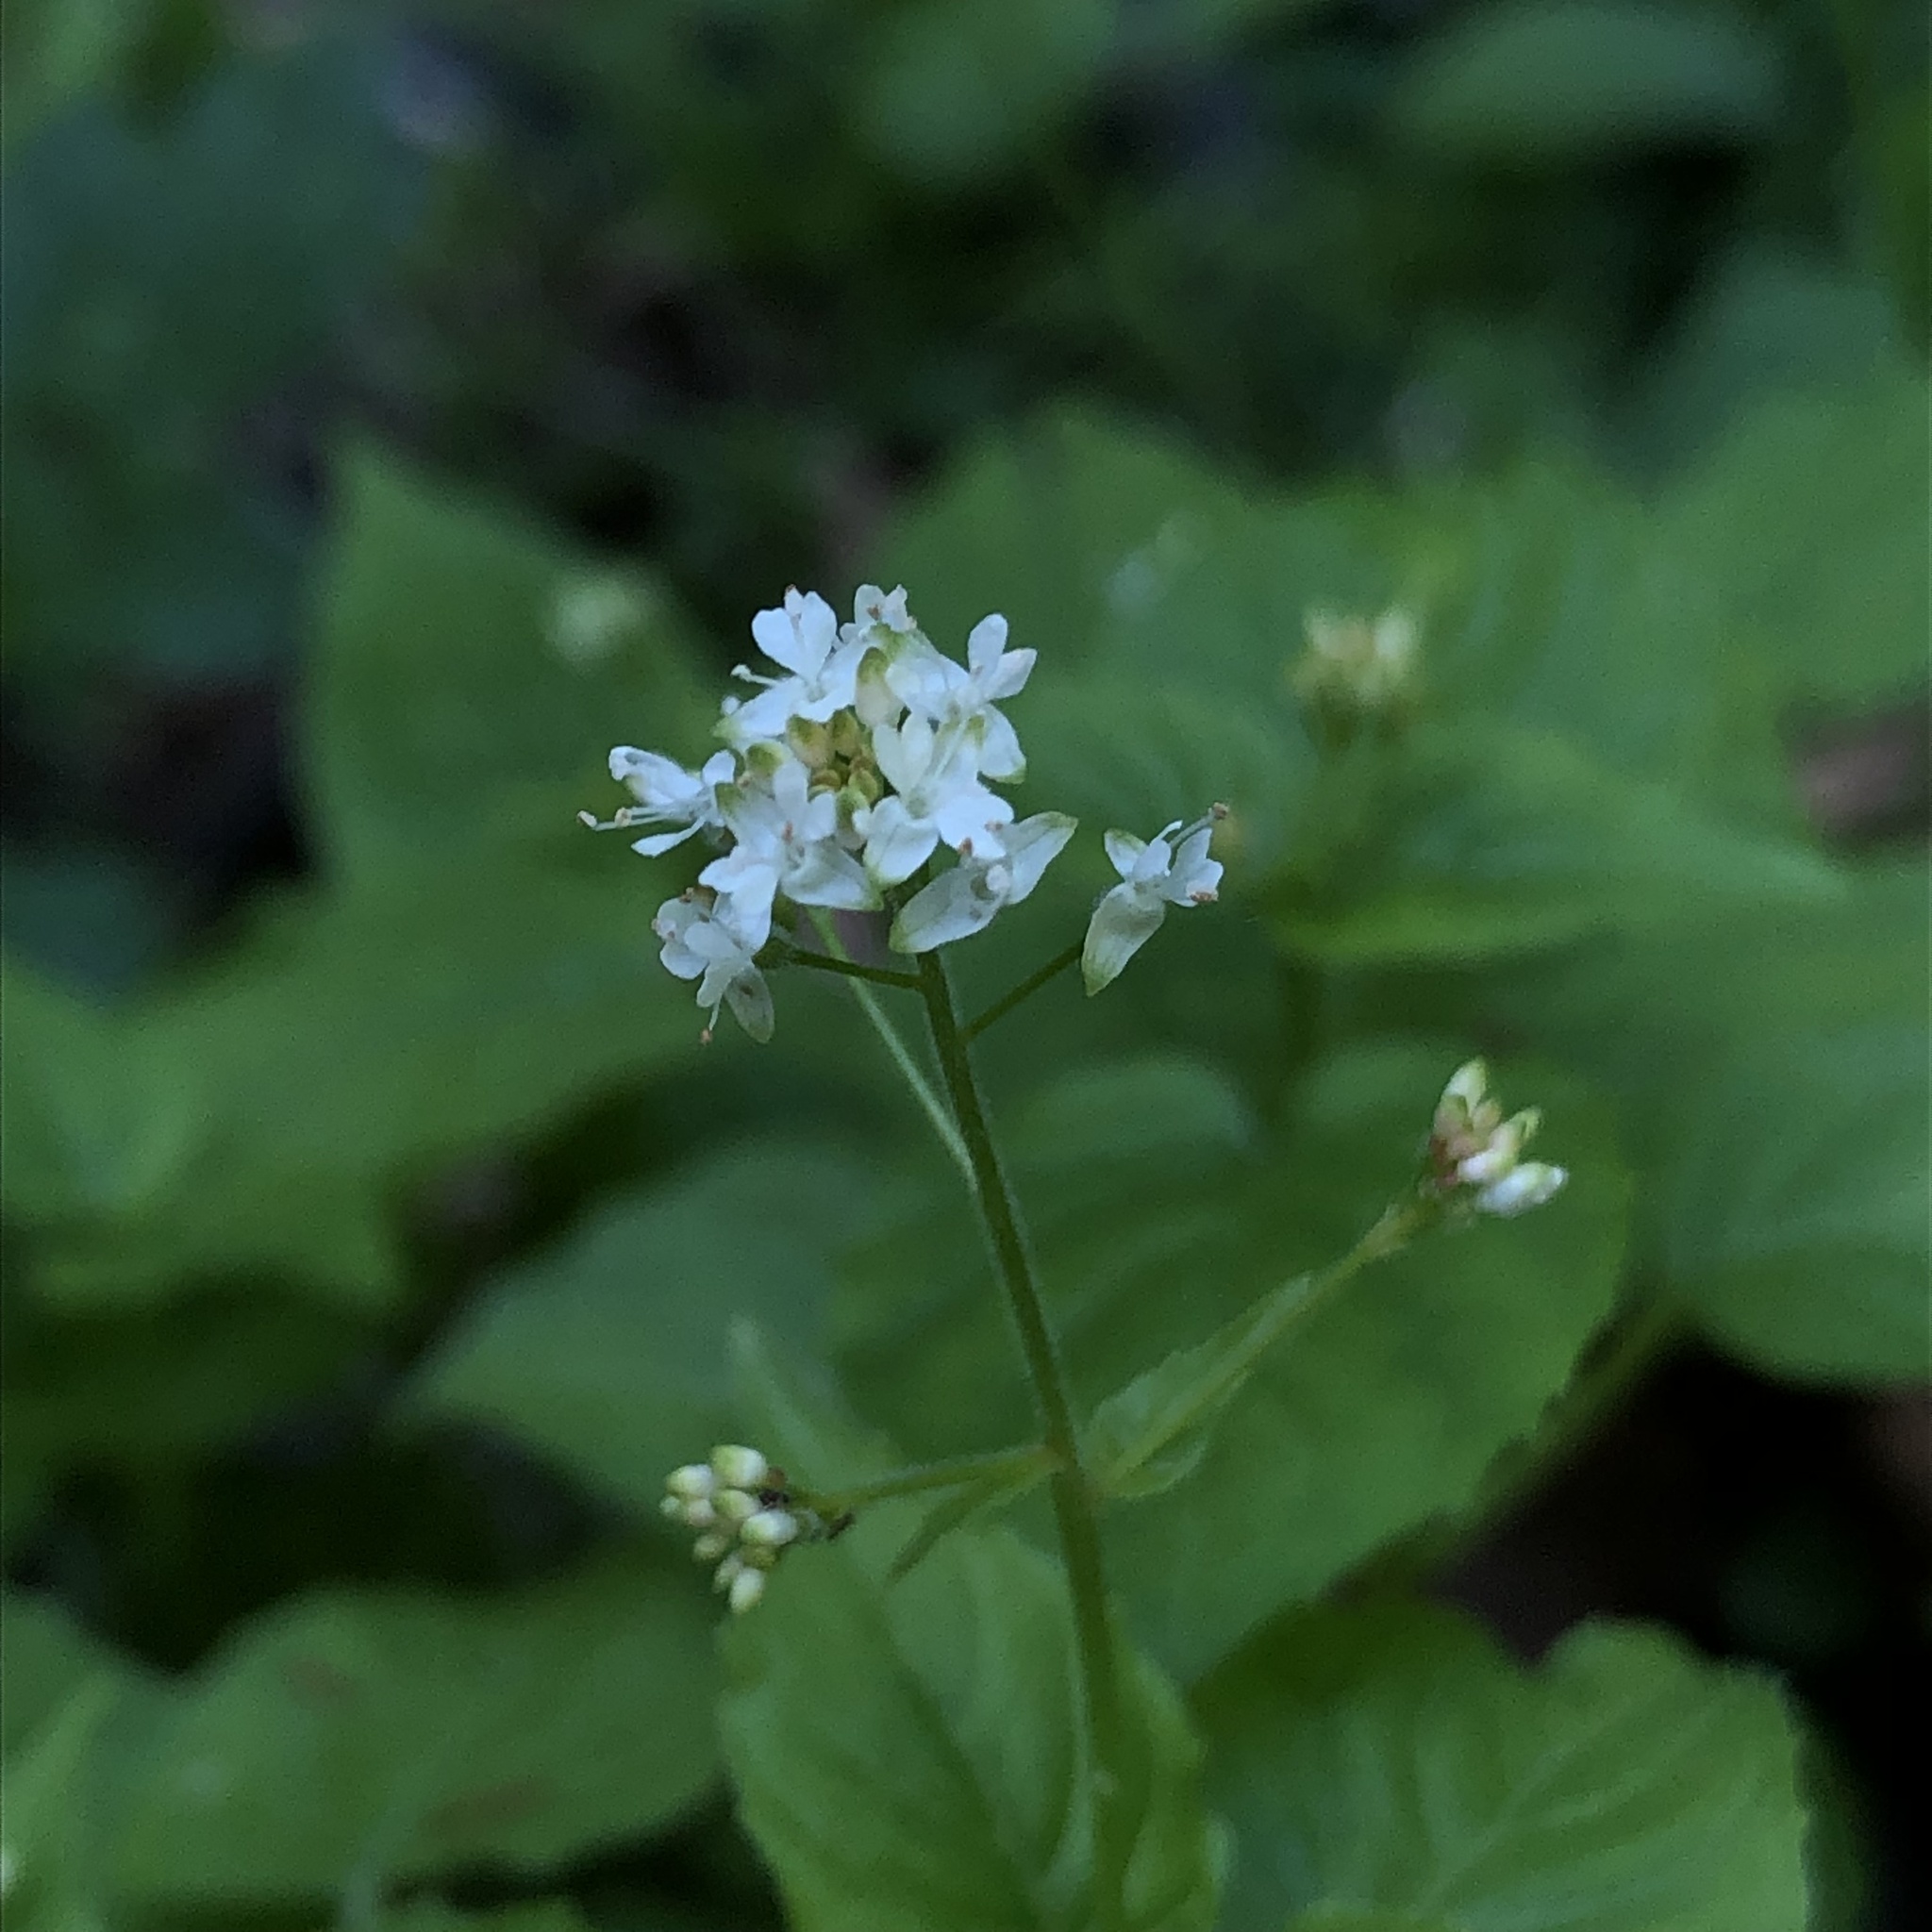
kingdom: Plantae
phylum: Tracheophyta
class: Magnoliopsida
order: Myrtales
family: Onagraceae
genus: Circaea
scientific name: Circaea alpina
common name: Alpine enchanter's-nightshade
